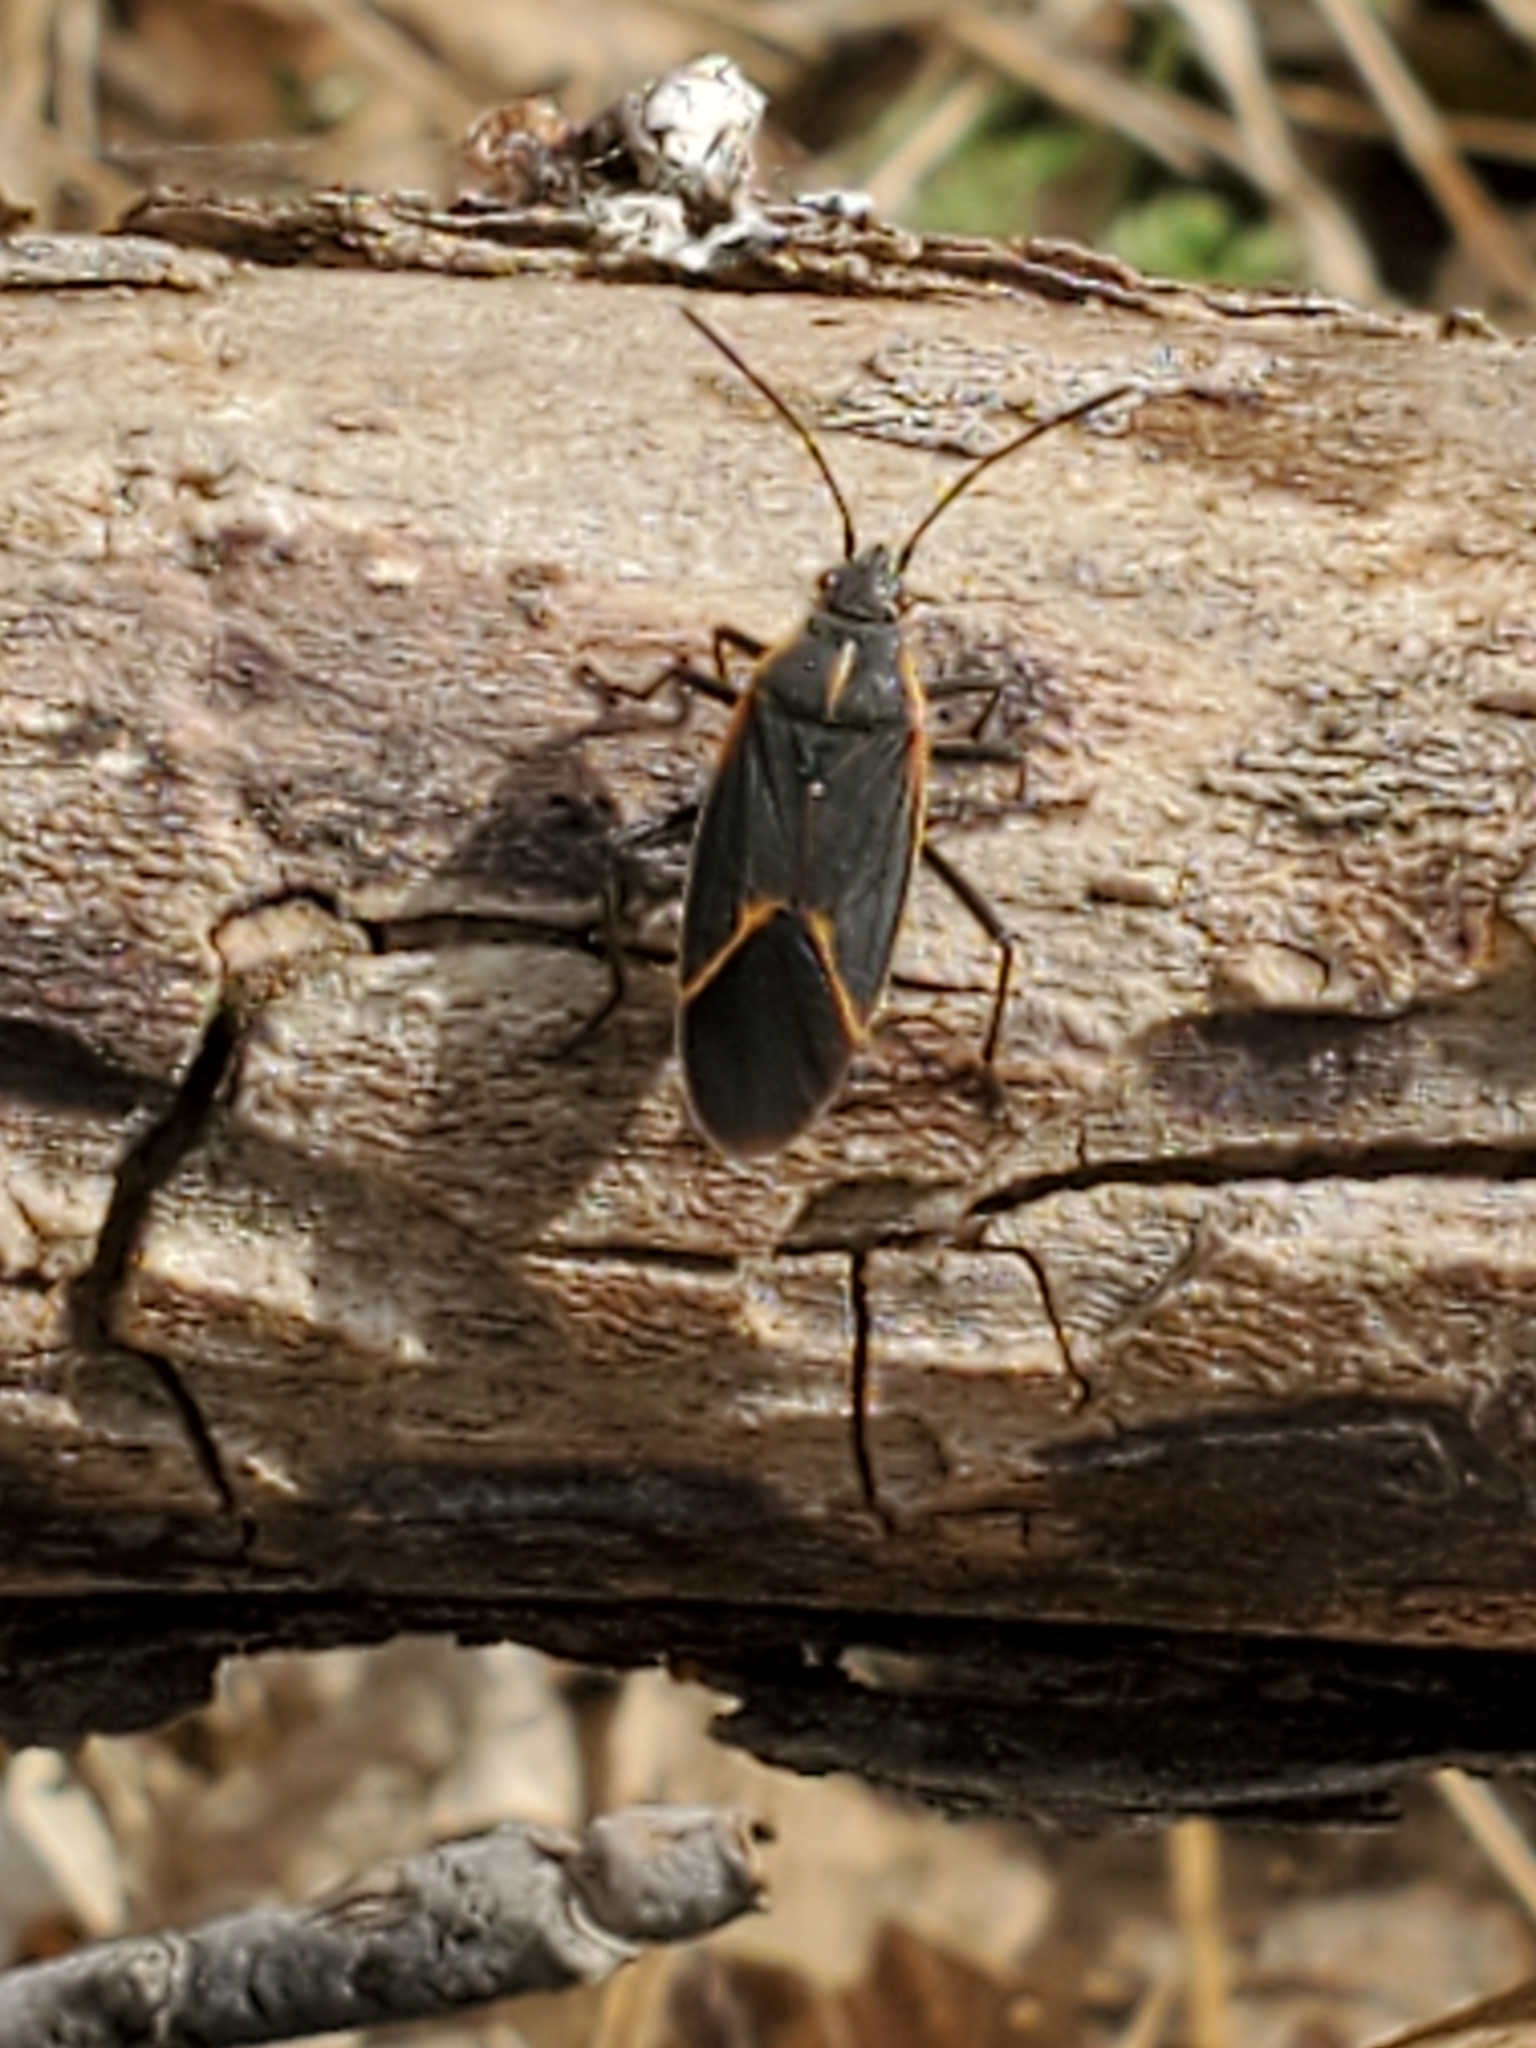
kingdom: Animalia
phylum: Arthropoda
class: Insecta
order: Hemiptera
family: Rhopalidae
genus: Boisea
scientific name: Boisea trivittata
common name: Boxelder bug
